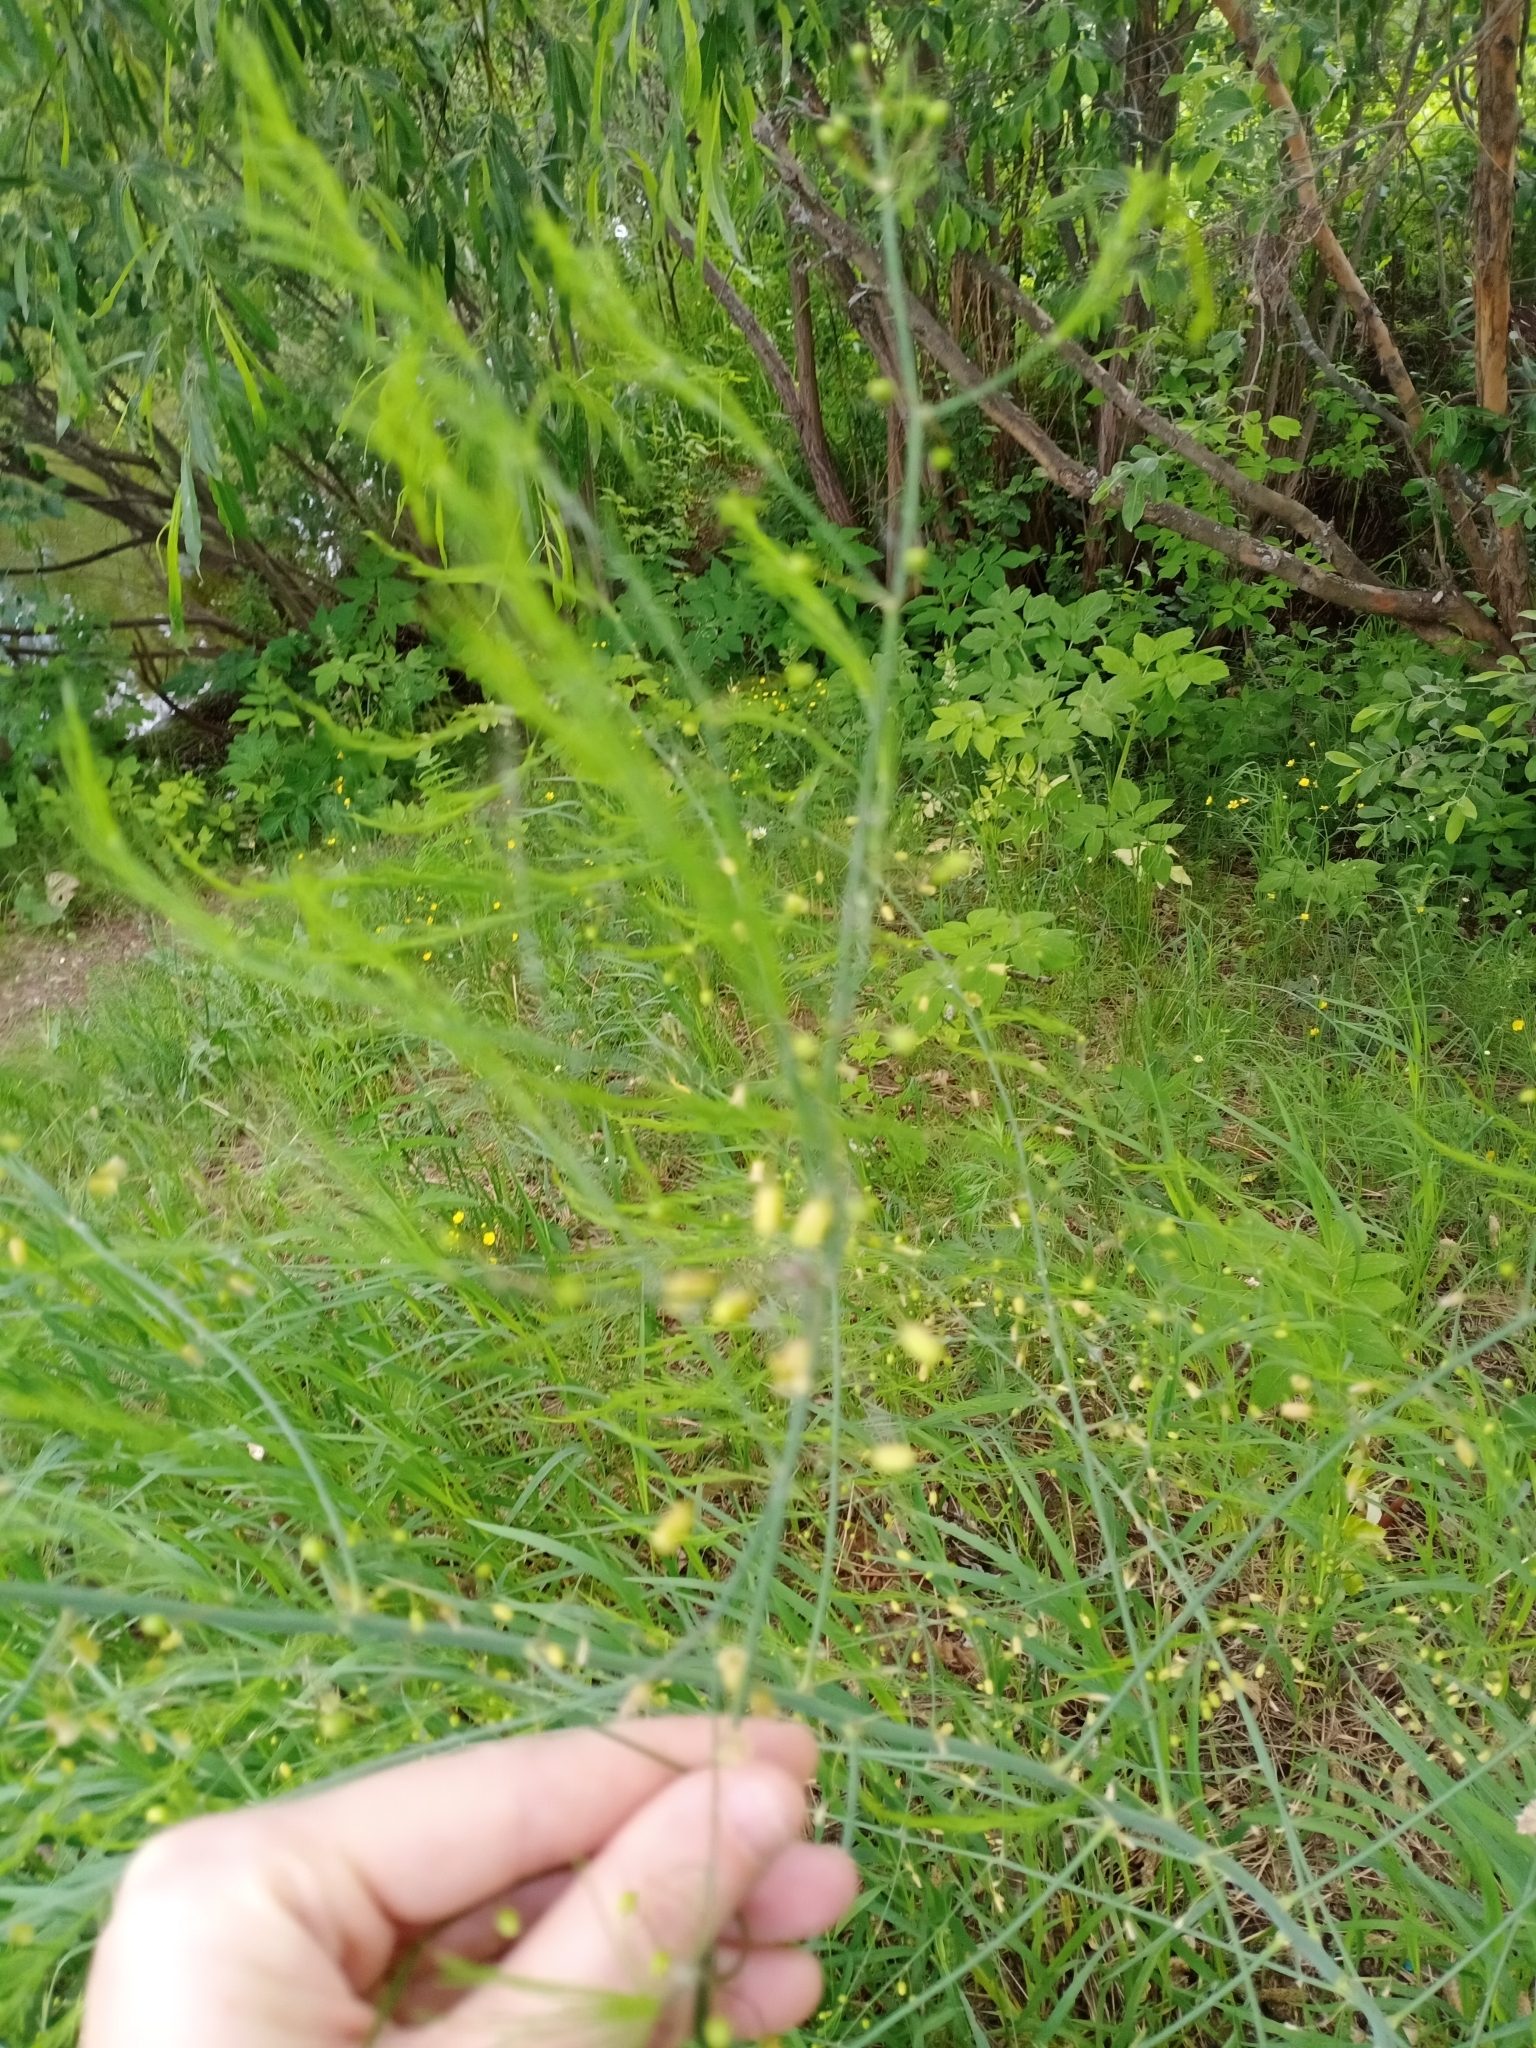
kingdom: Plantae
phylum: Tracheophyta
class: Liliopsida
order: Asparagales
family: Asparagaceae
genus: Asparagus
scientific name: Asparagus officinalis
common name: Garden asparagus
